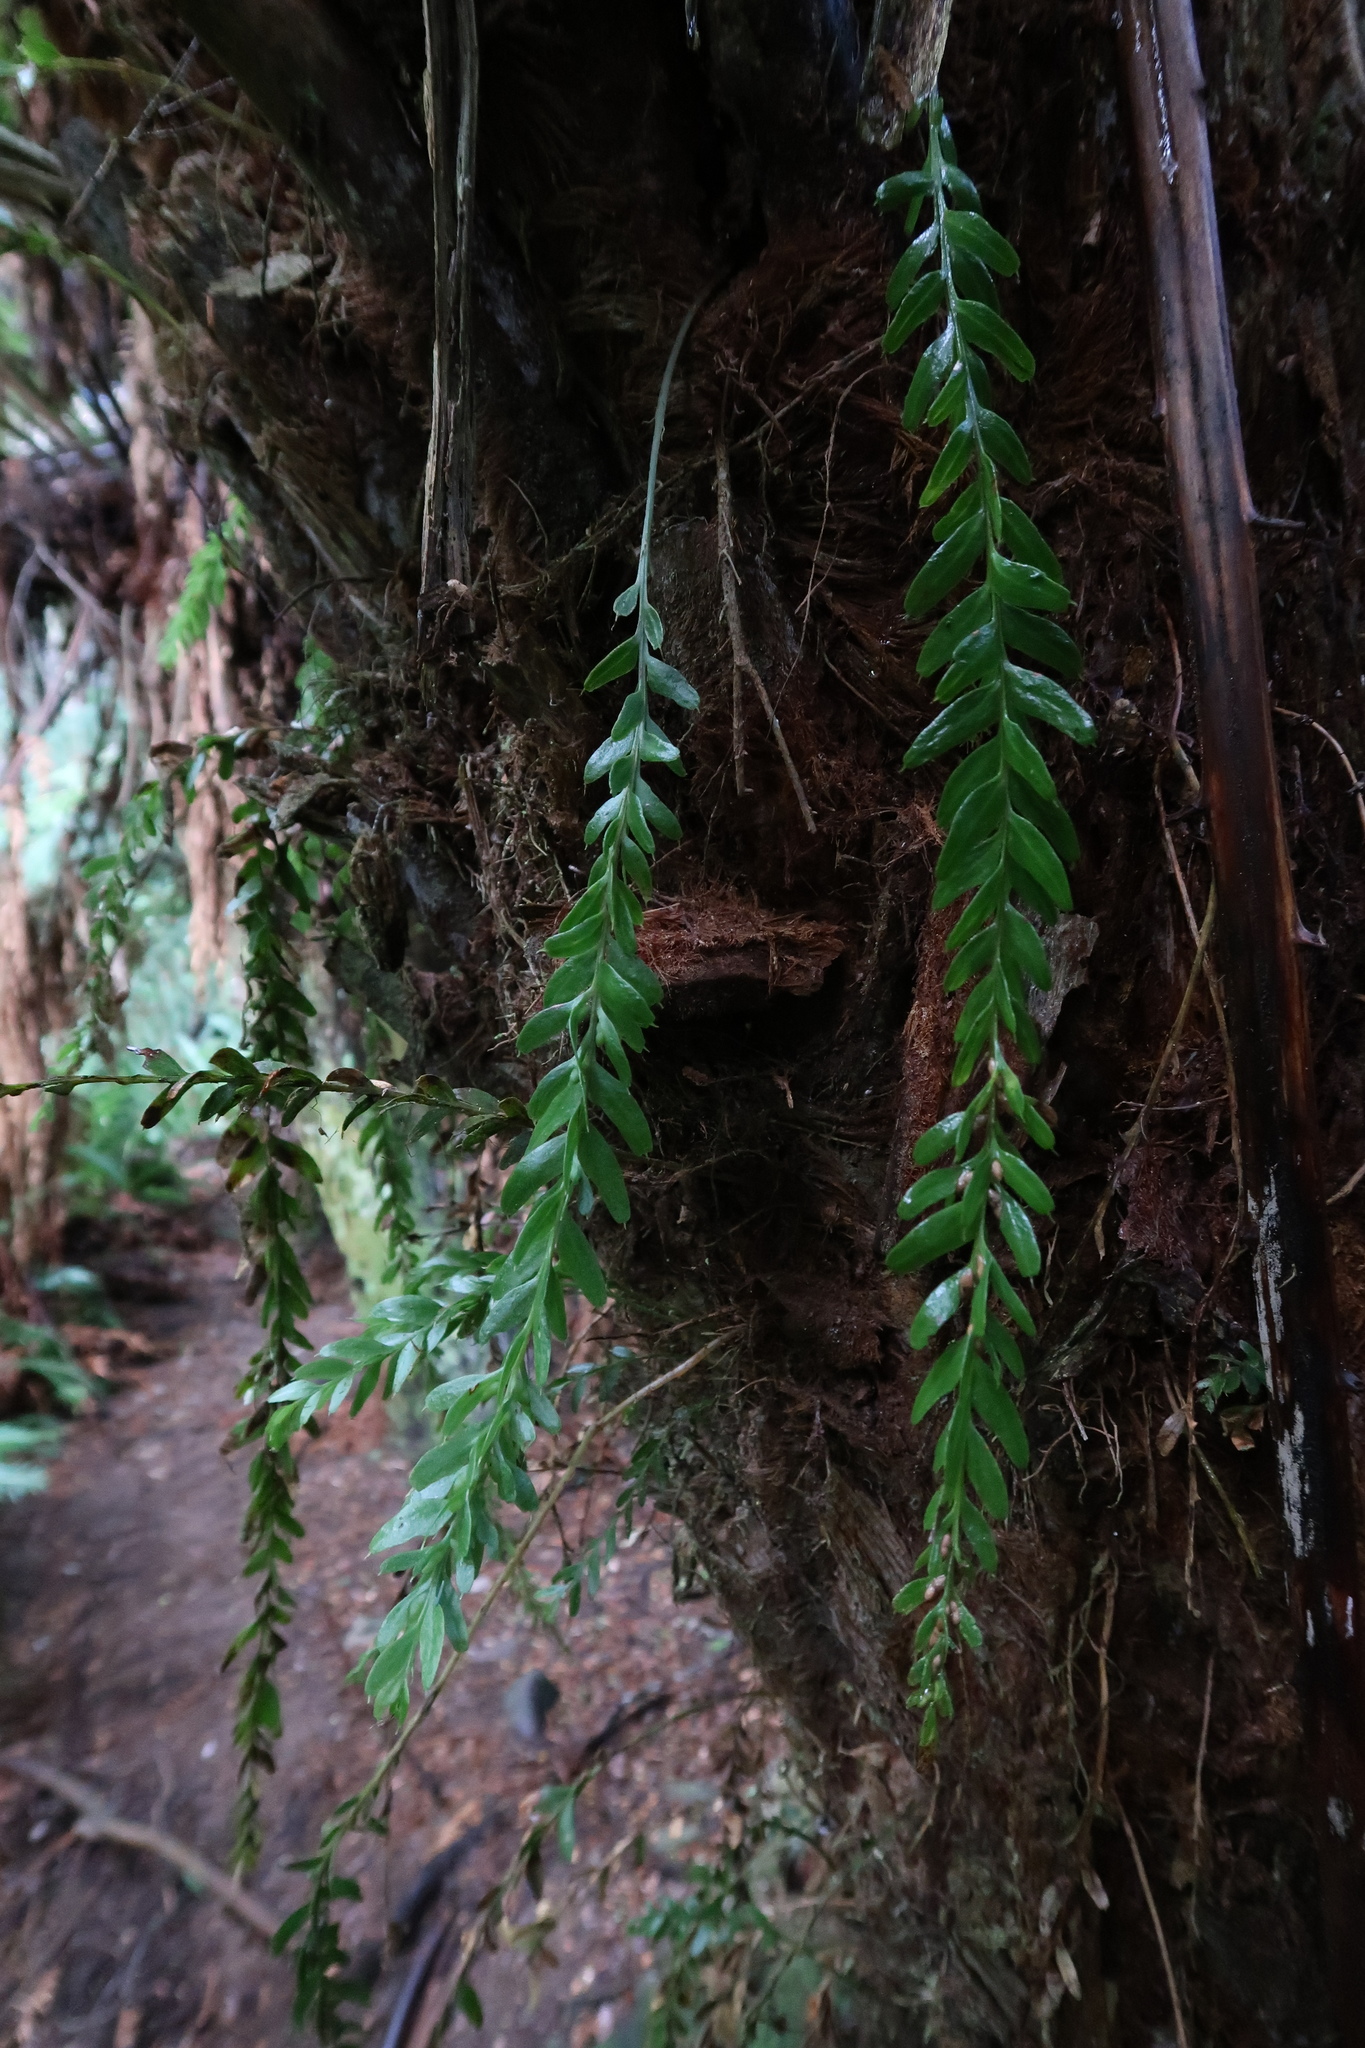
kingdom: Plantae
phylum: Tracheophyta
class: Polypodiopsida
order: Psilotales
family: Psilotaceae
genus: Tmesipteris
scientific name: Tmesipteris obliqua
